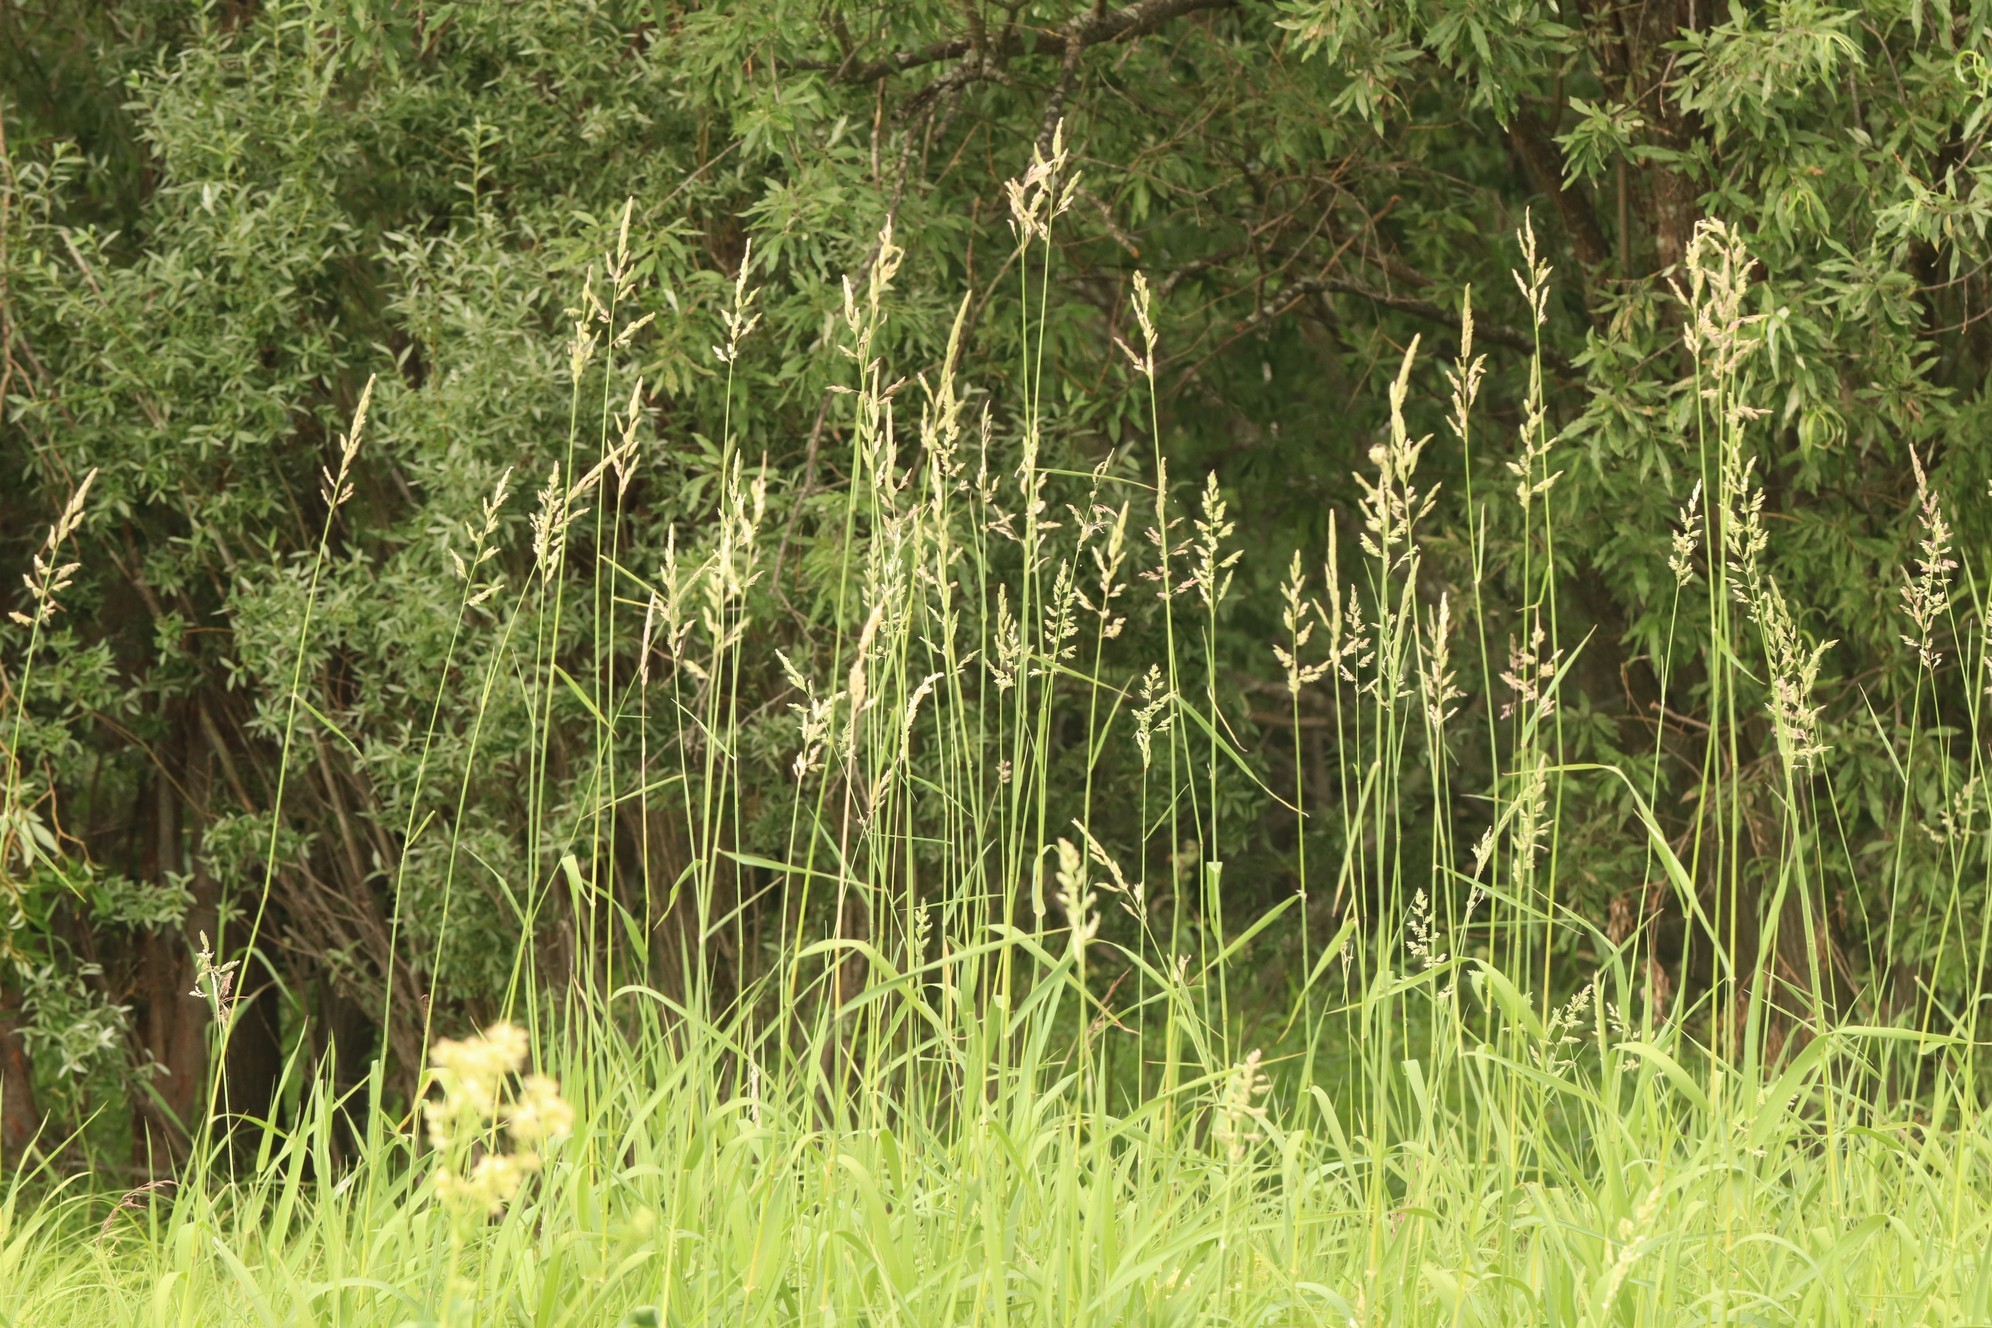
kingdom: Plantae
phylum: Tracheophyta
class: Liliopsida
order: Poales
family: Poaceae
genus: Phalaris
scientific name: Phalaris arundinacea
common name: Reed canary-grass
